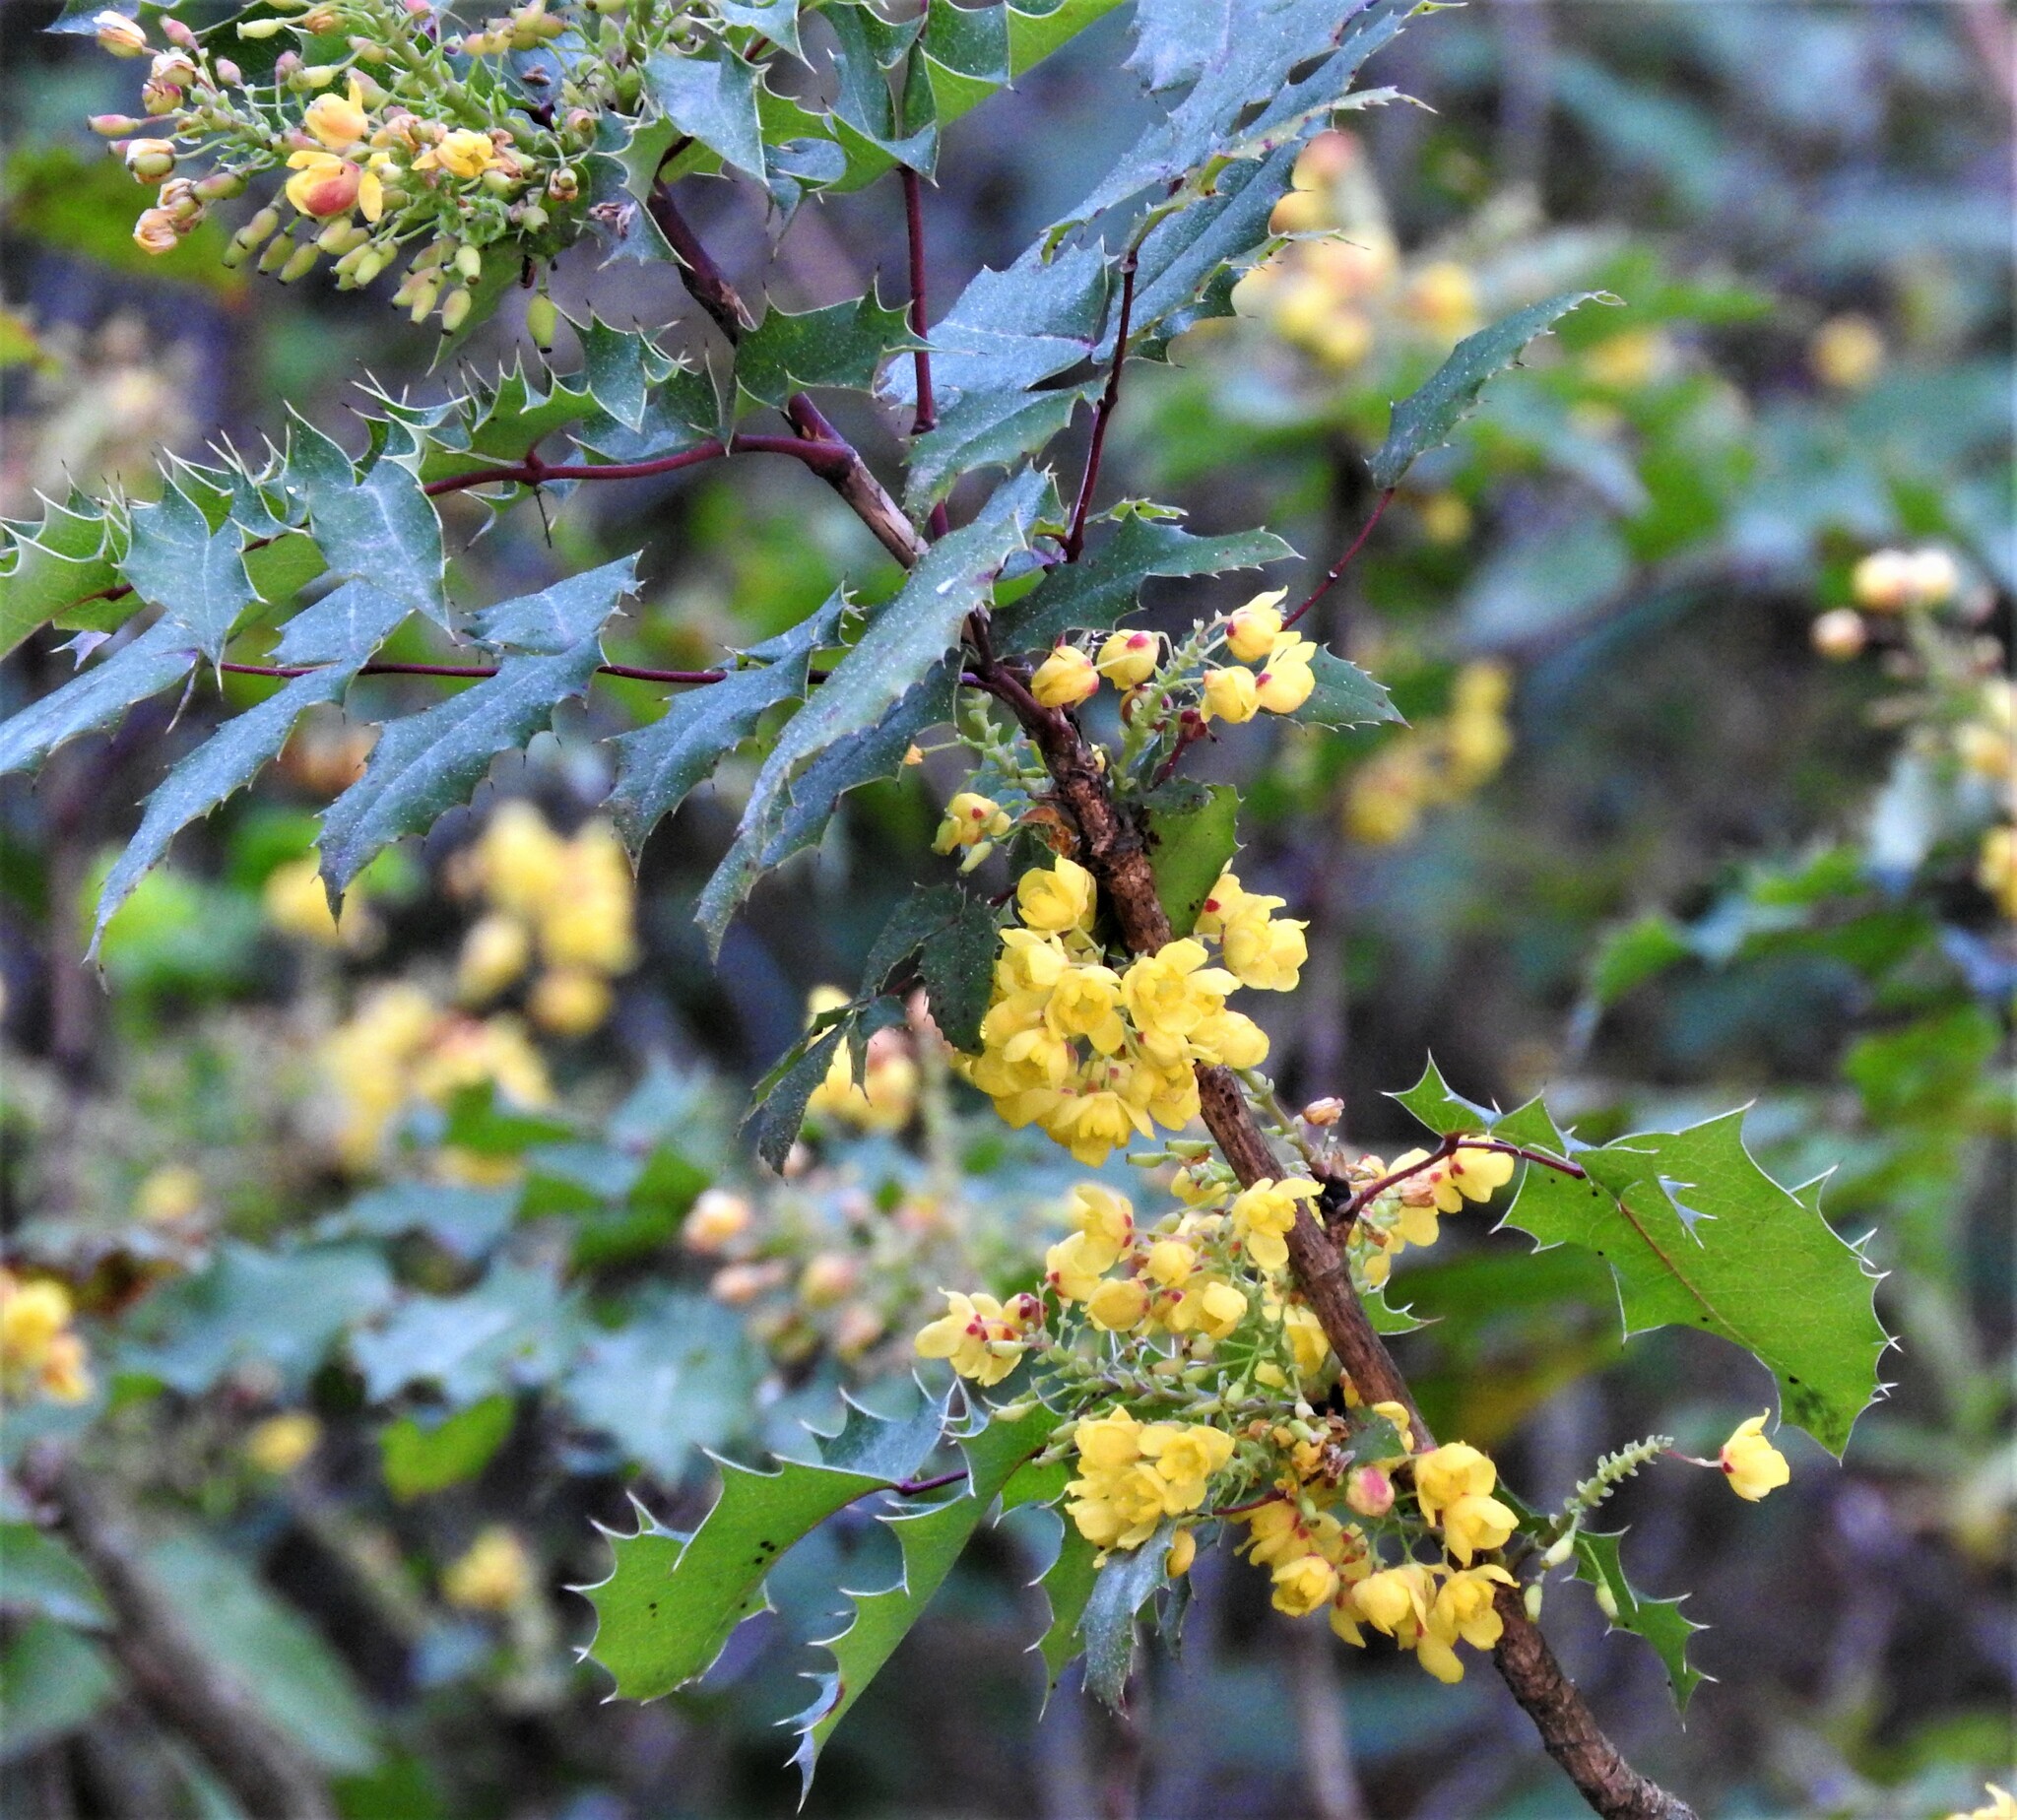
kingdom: Plantae
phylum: Tracheophyta
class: Magnoliopsida
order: Ranunculales
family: Berberidaceae
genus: Mahonia
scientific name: Mahonia aquifolium
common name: Oregon-grape
